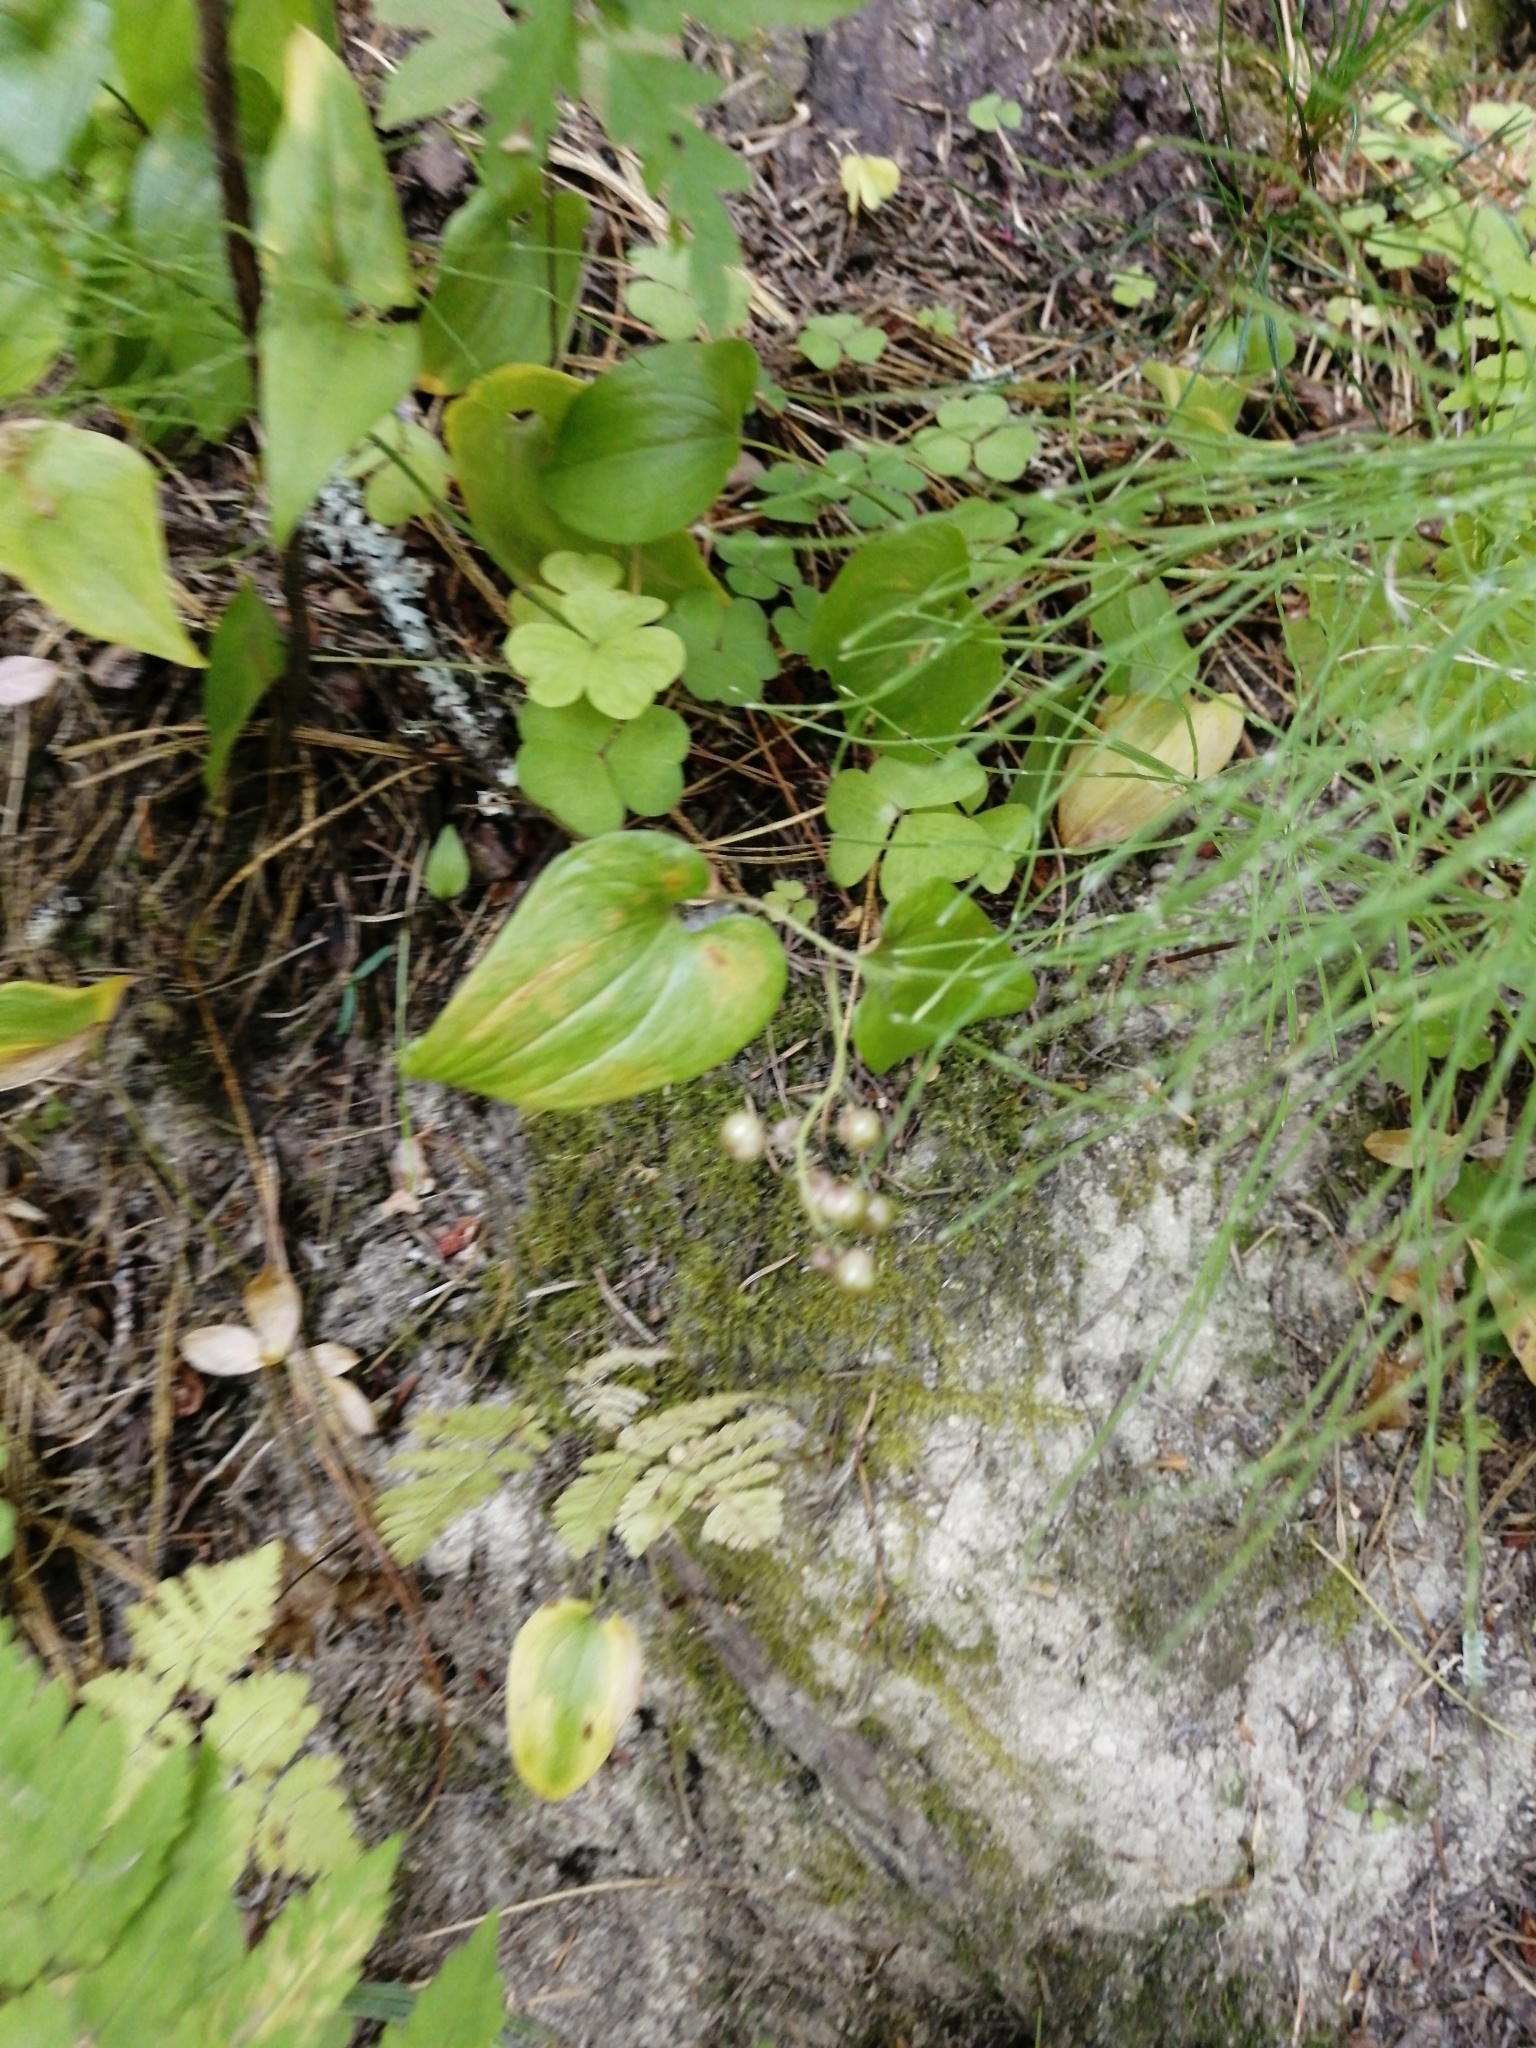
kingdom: Plantae
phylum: Tracheophyta
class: Liliopsida
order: Asparagales
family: Asparagaceae
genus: Maianthemum
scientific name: Maianthemum bifolium
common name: May lily
